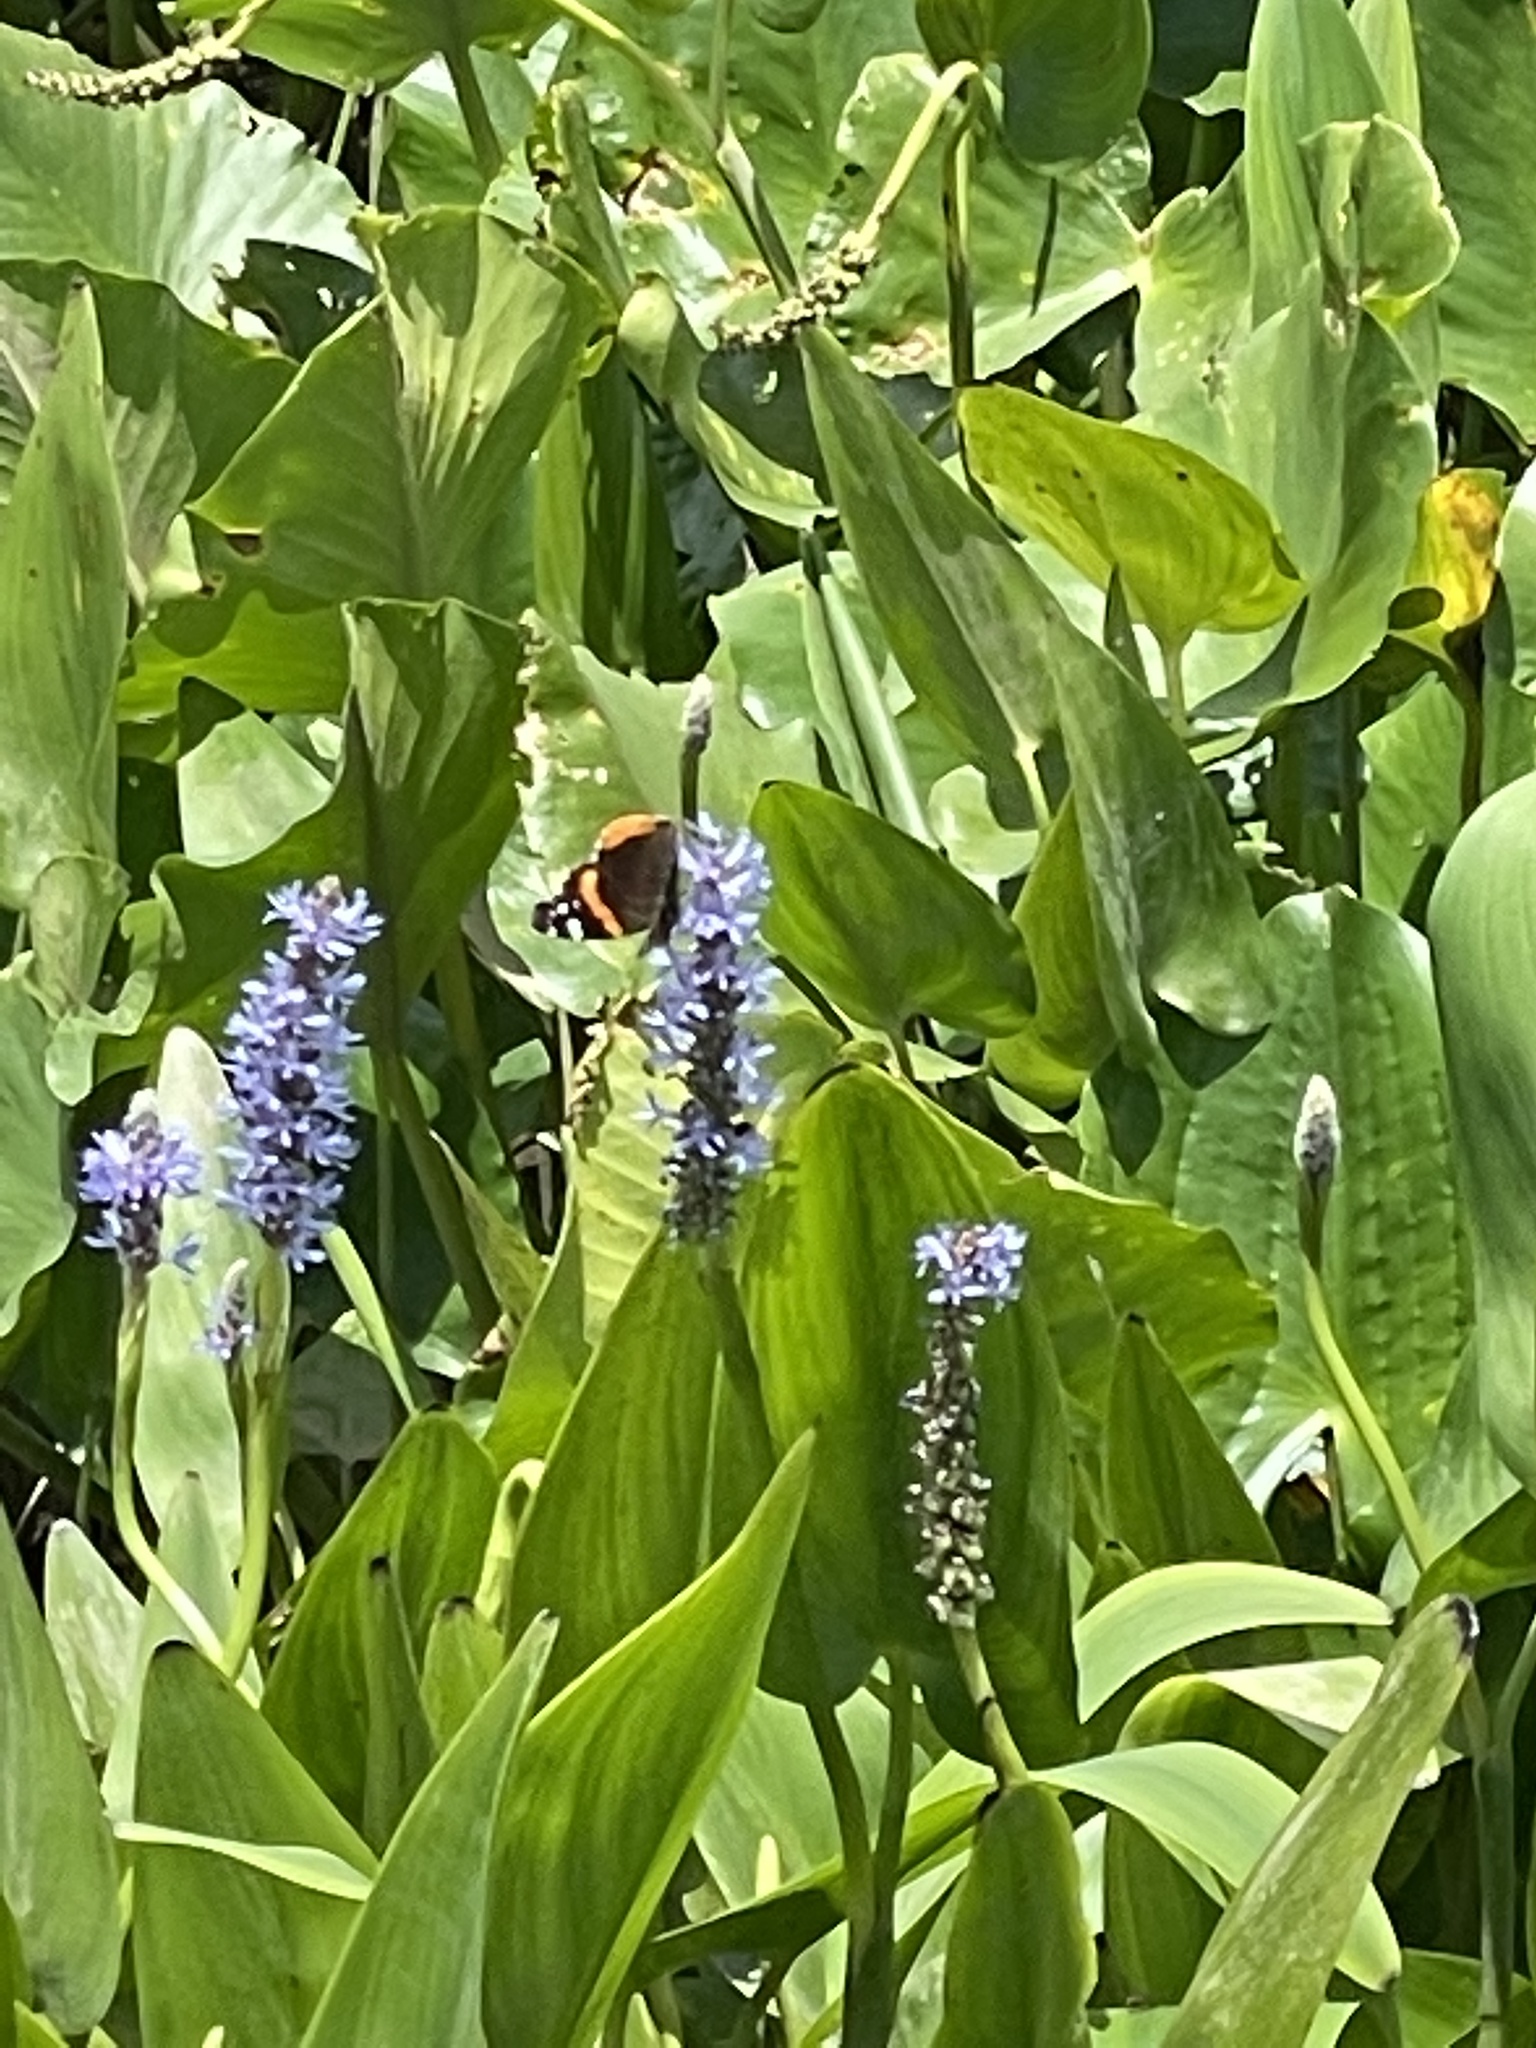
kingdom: Animalia
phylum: Arthropoda
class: Insecta
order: Lepidoptera
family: Nymphalidae
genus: Vanessa
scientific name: Vanessa atalanta
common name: Red admiral
